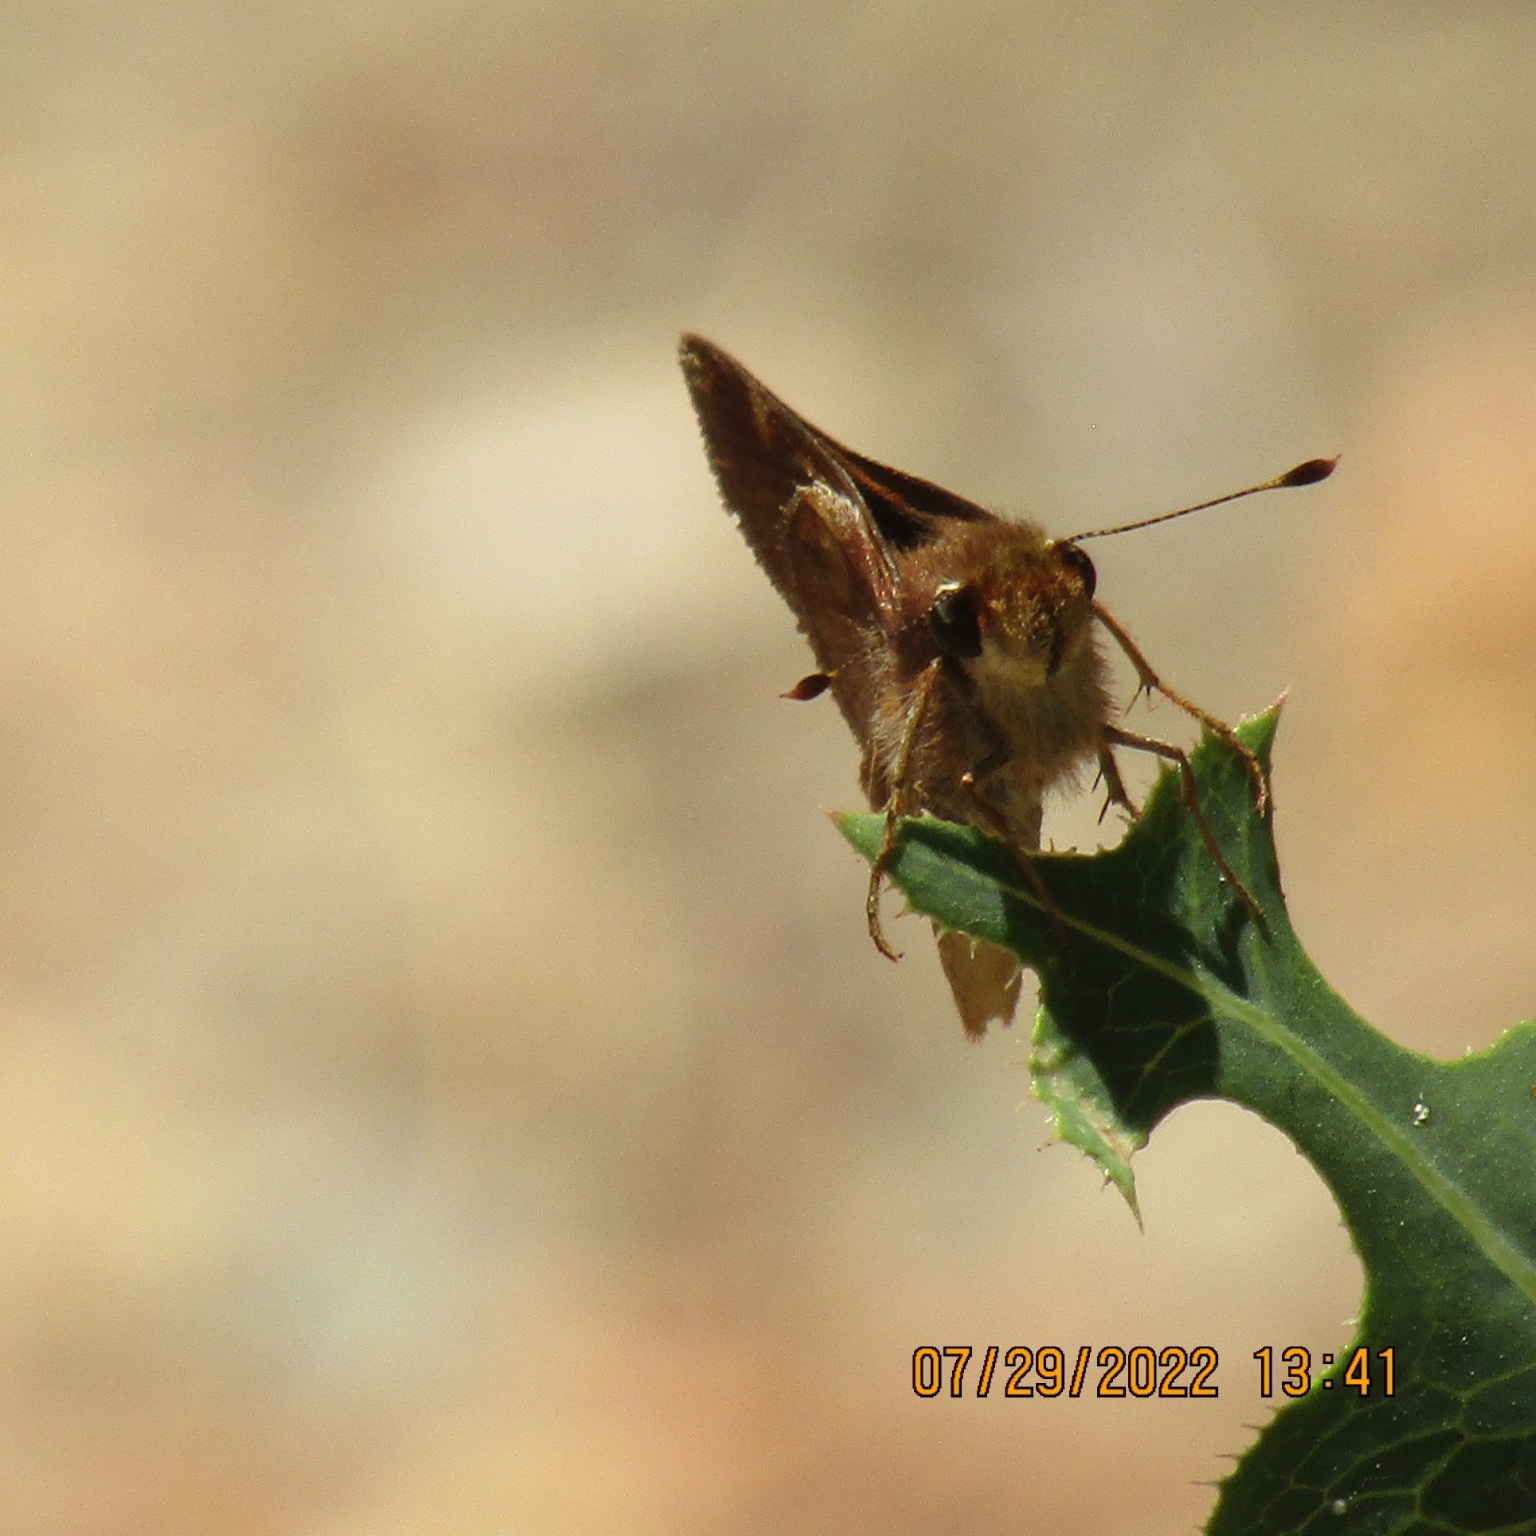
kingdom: Animalia
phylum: Arthropoda
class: Insecta
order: Lepidoptera
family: Hesperiidae
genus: Lon
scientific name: Lon melane
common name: Umber skipper
